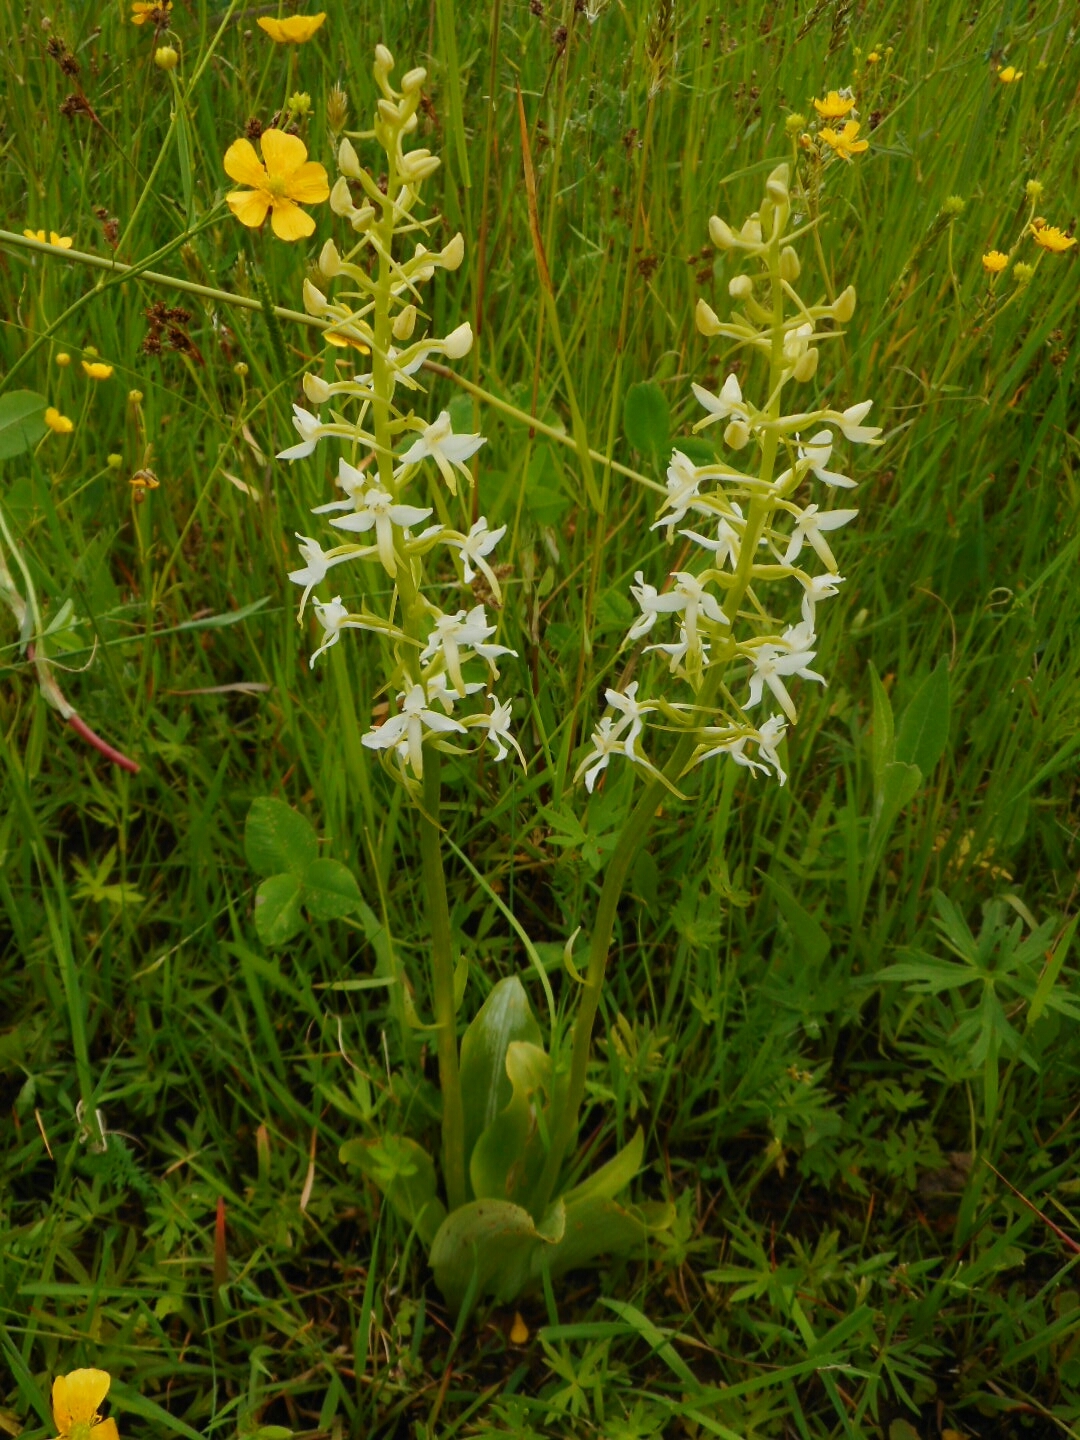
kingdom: Plantae
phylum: Tracheophyta
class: Liliopsida
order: Asparagales
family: Orchidaceae
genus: Platanthera
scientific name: Platanthera bifolia
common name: Lesser butterfly-orchid
